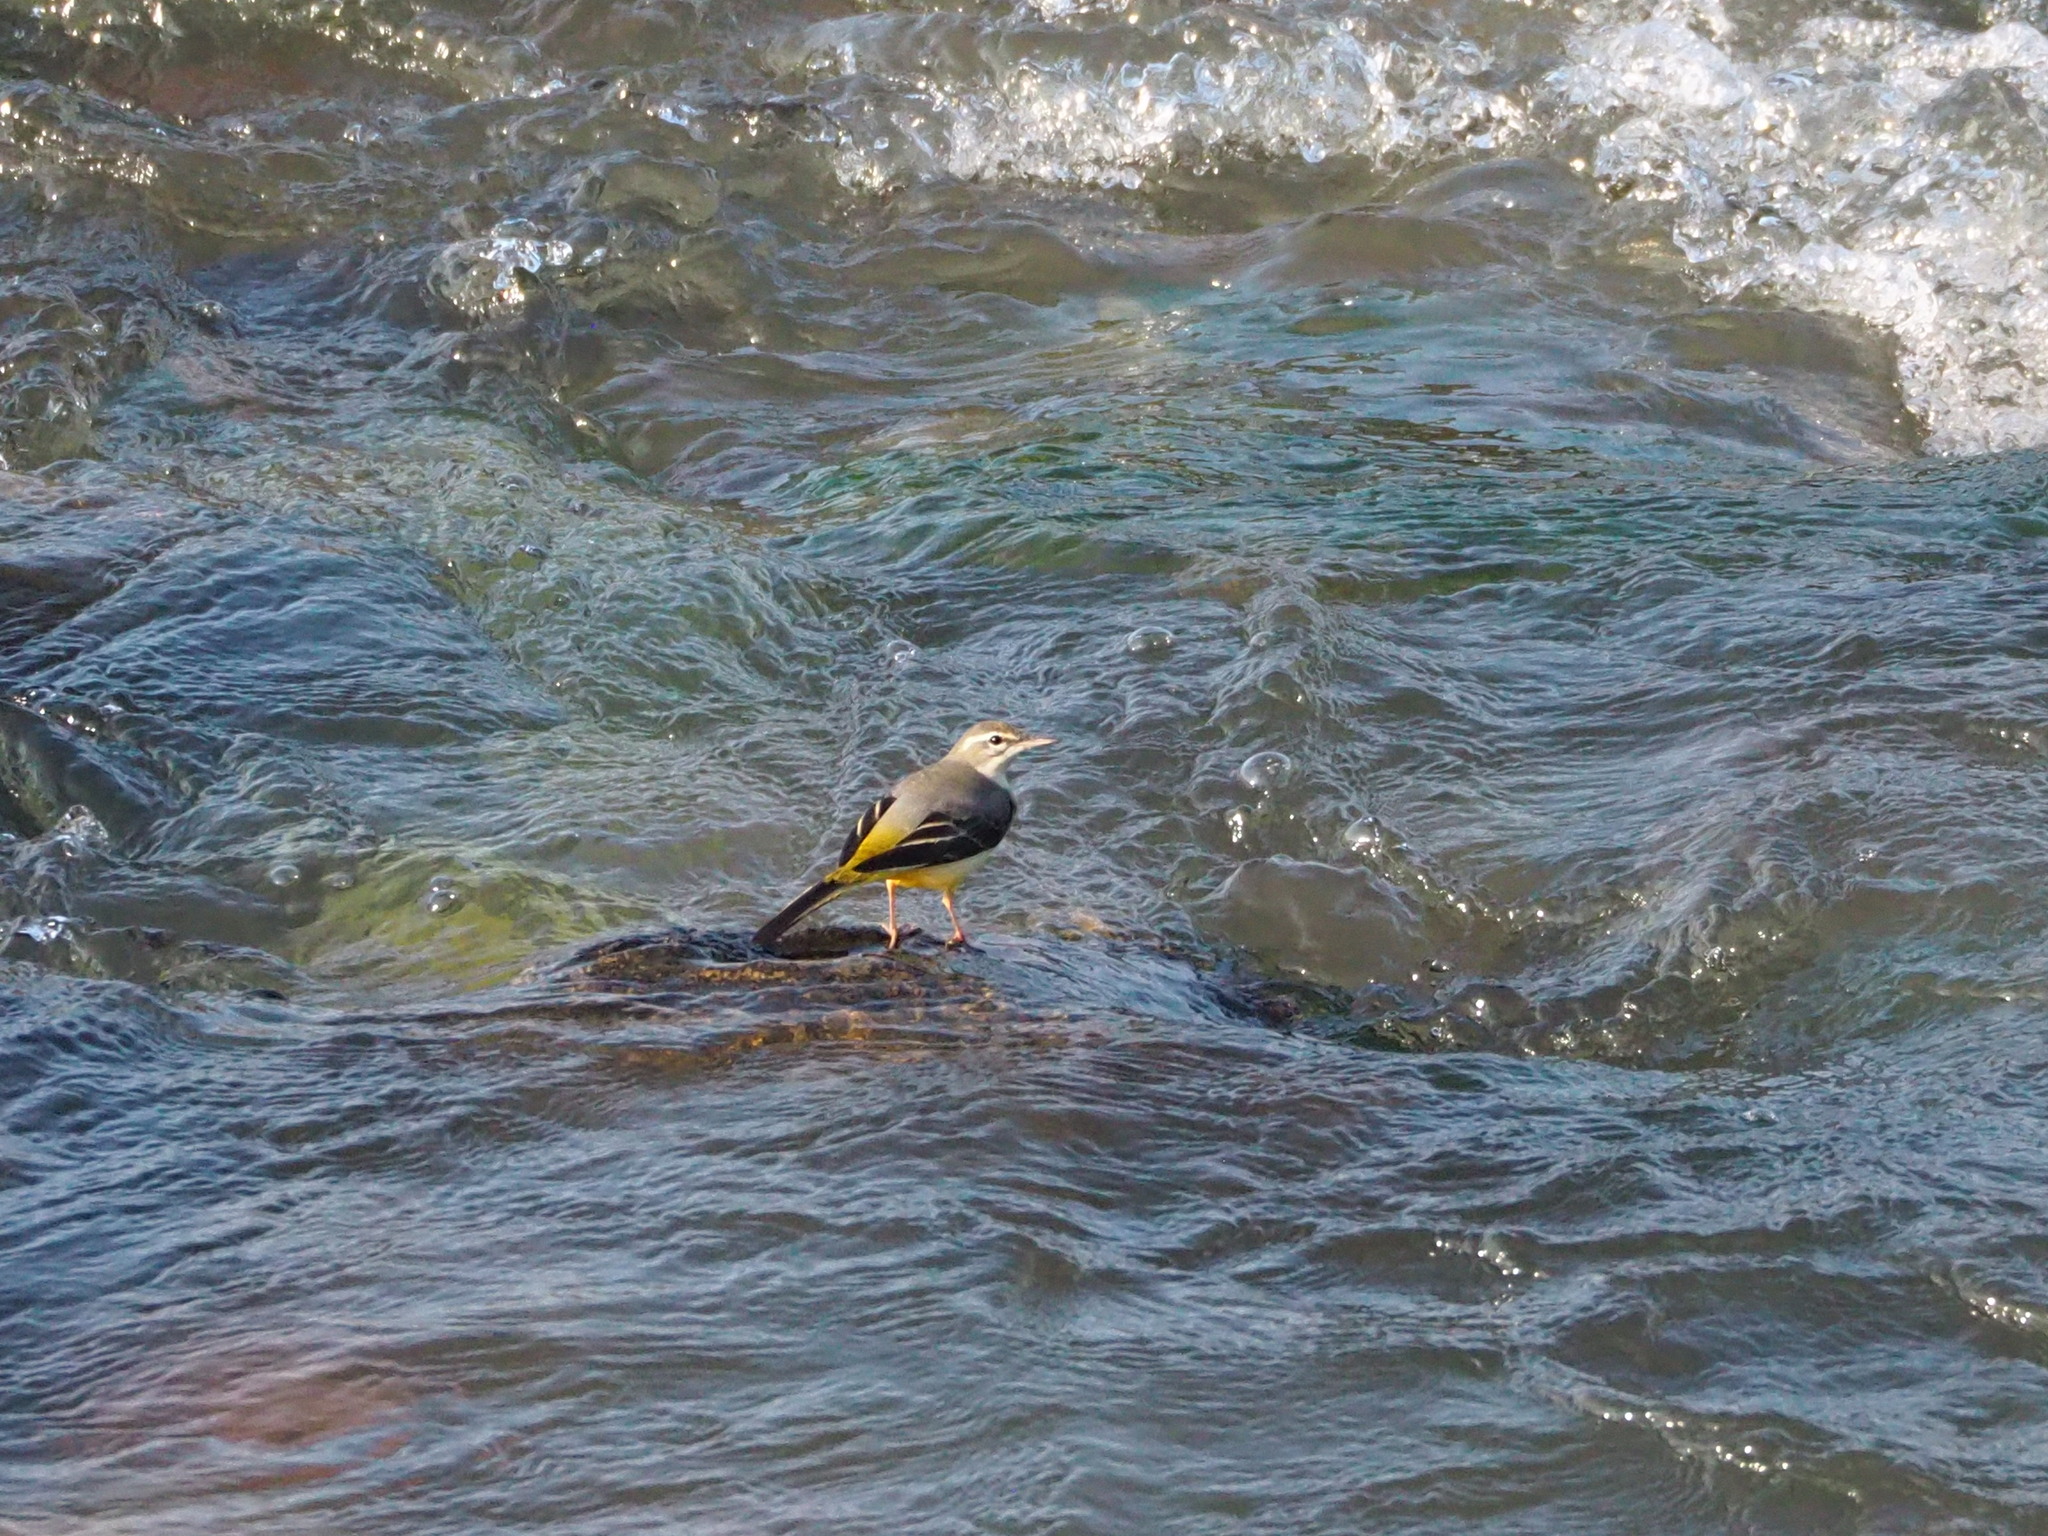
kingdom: Animalia
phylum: Chordata
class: Aves
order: Passeriformes
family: Motacillidae
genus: Motacilla
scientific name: Motacilla cinerea
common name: Grey wagtail
